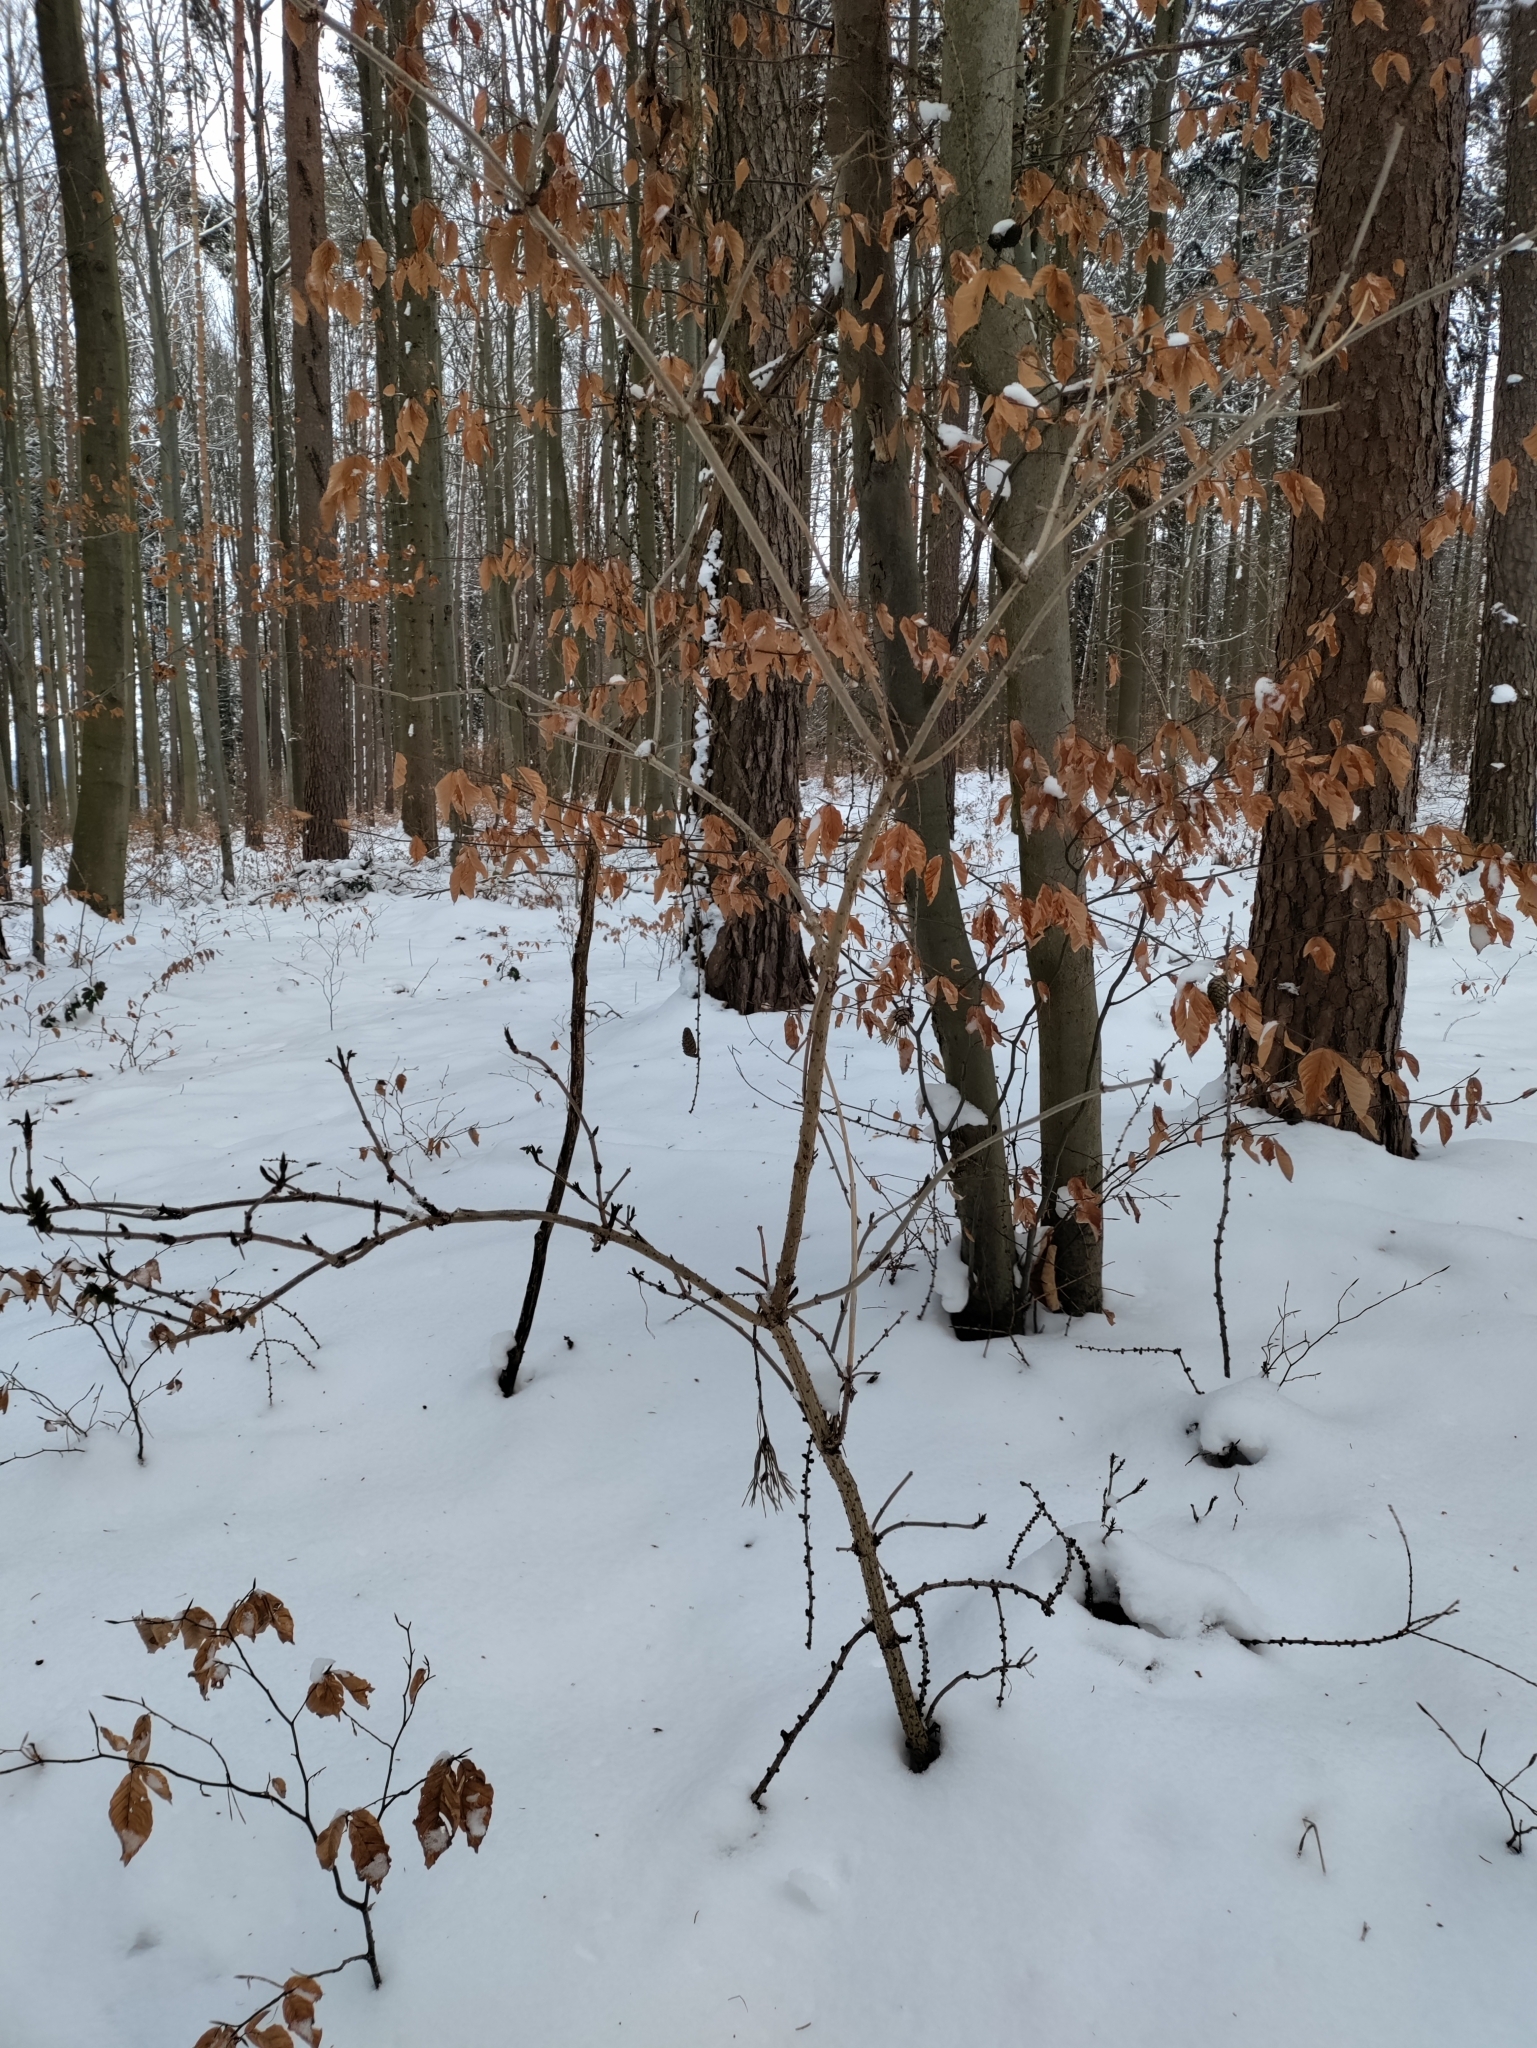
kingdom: Plantae
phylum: Tracheophyta
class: Magnoliopsida
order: Dipsacales
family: Viburnaceae
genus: Sambucus
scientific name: Sambucus nigra
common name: Elder
